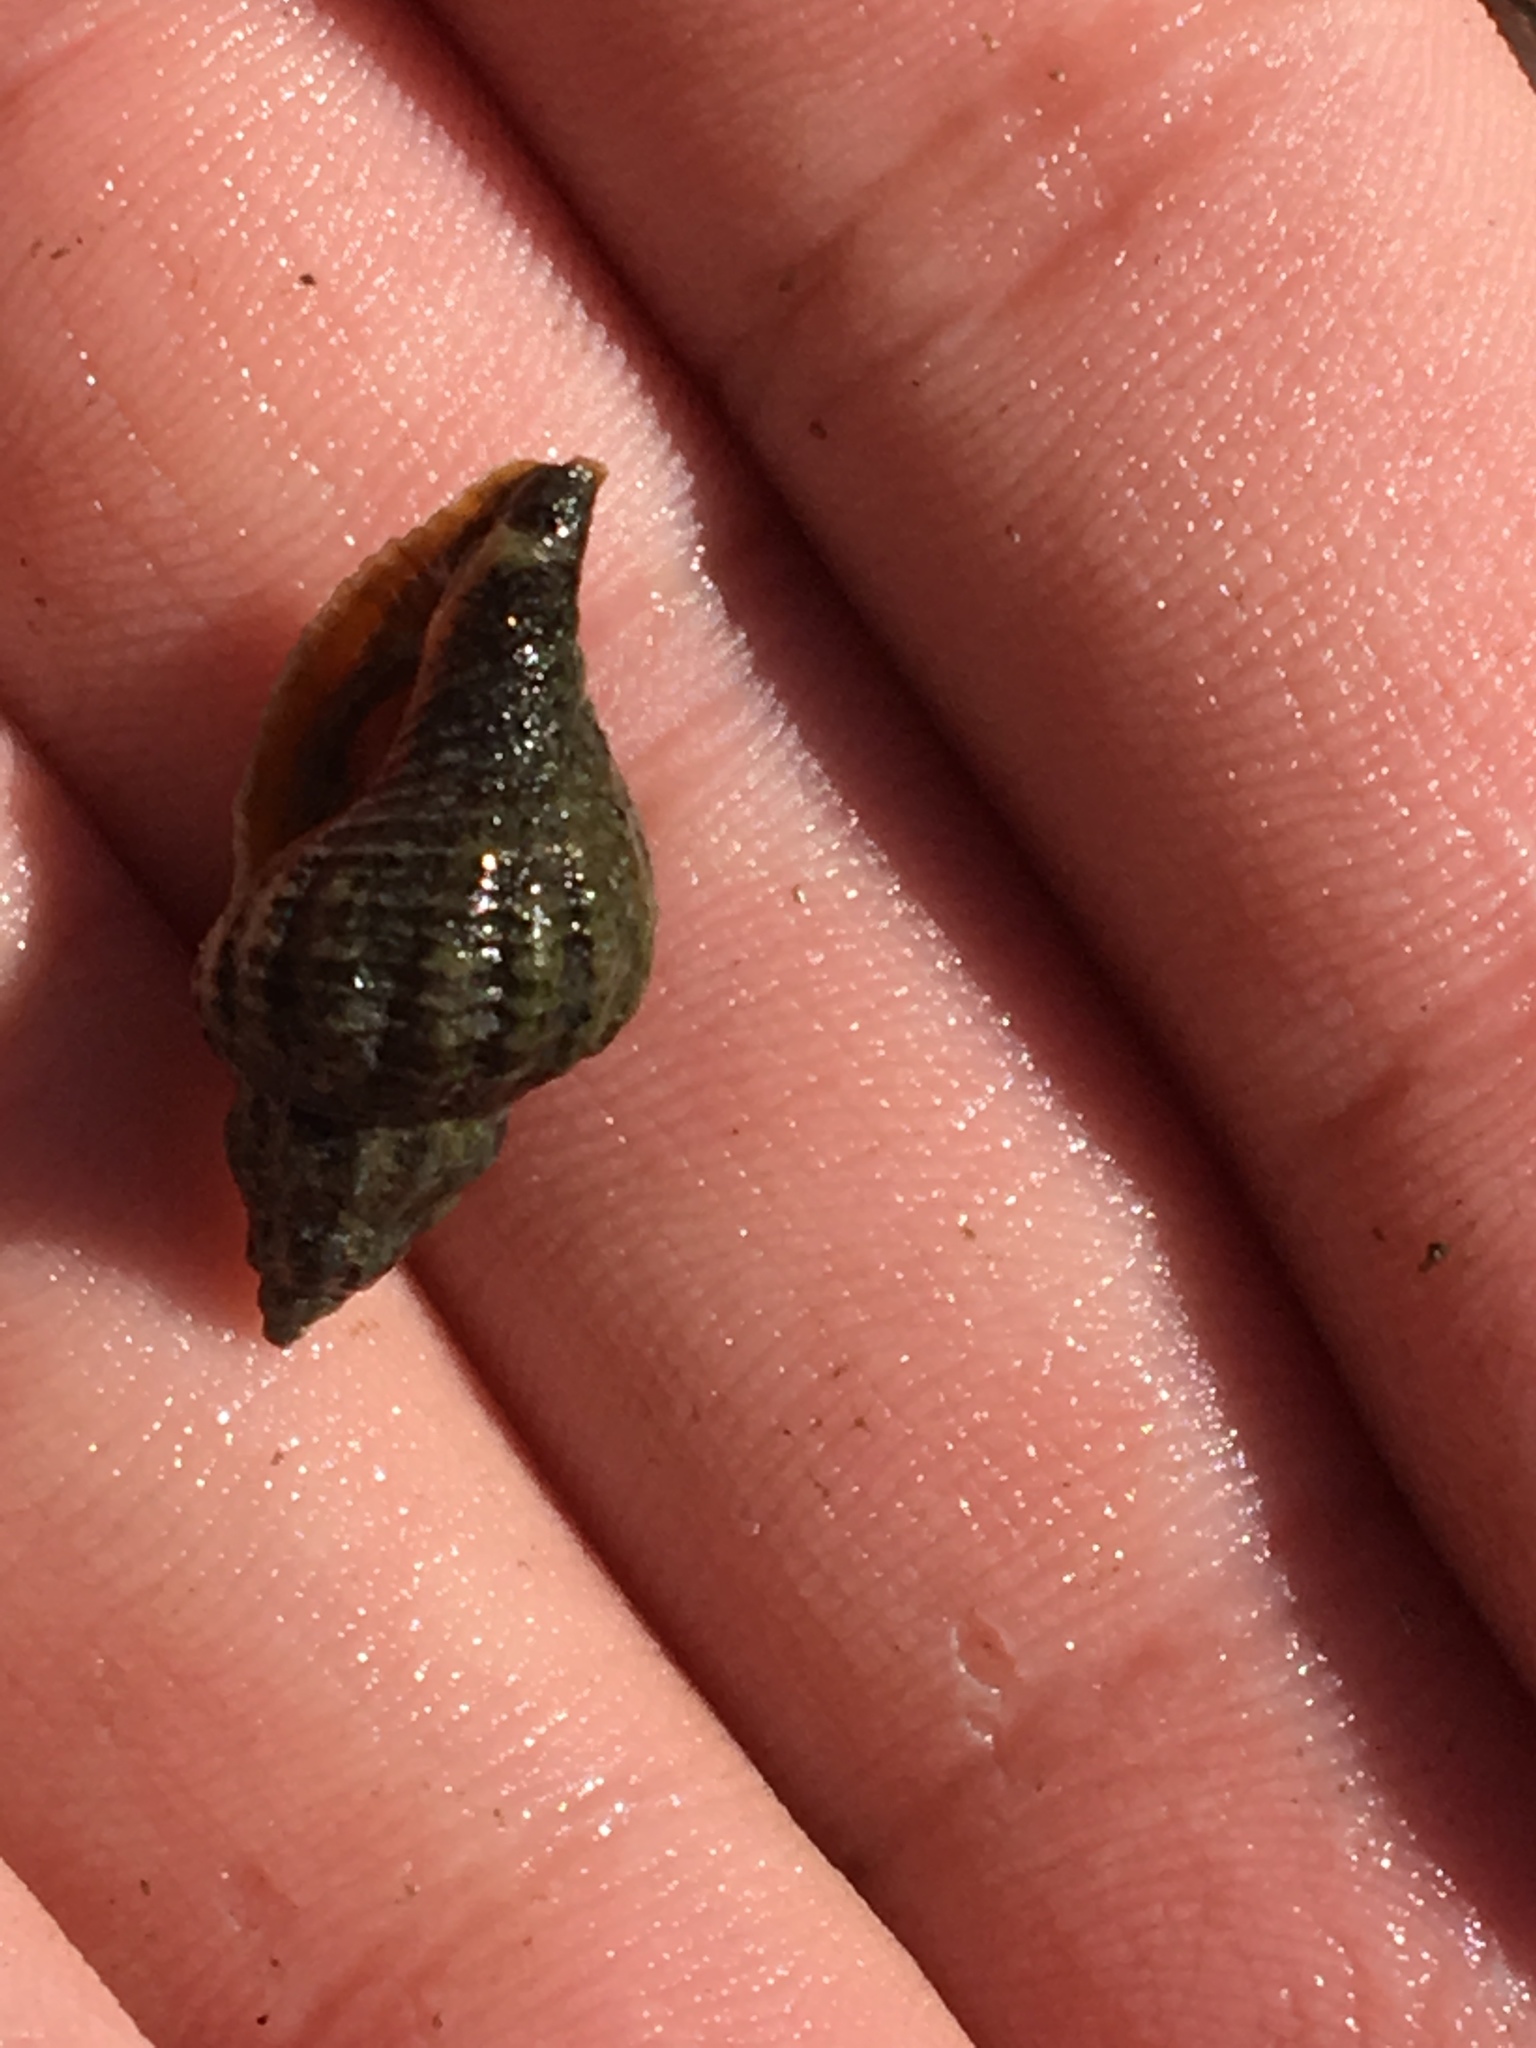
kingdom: Animalia
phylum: Mollusca
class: Gastropoda
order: Neogastropoda
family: Muricidae
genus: Urosalpinx
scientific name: Urosalpinx cinerea
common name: American sting winkle
